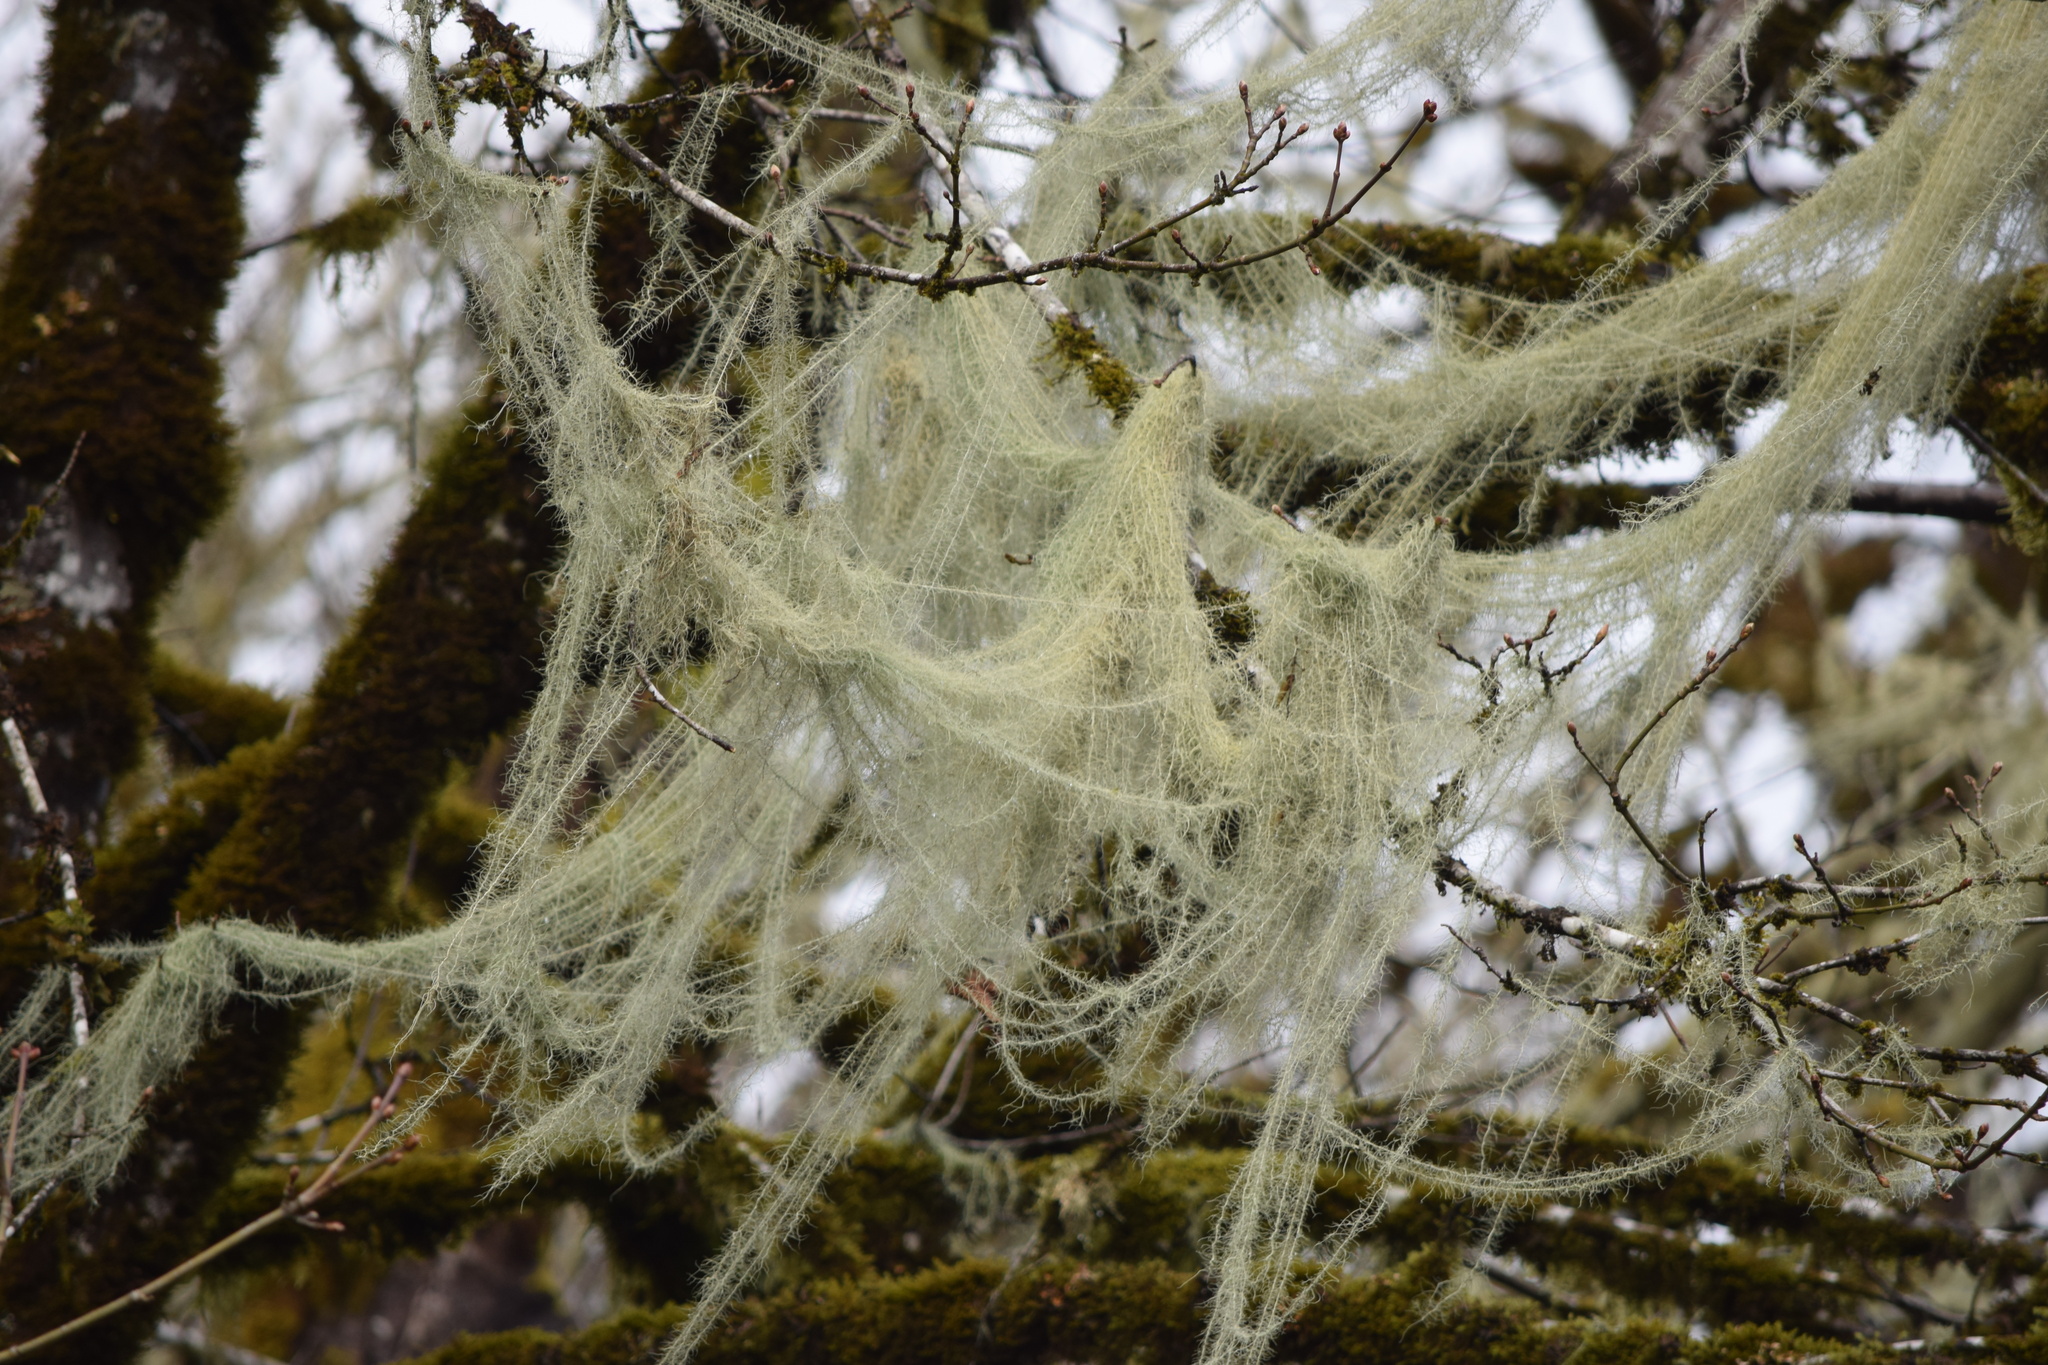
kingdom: Fungi
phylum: Ascomycota
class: Lecanoromycetes
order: Lecanorales
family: Parmeliaceae
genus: Dolichousnea
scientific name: Dolichousnea longissima
